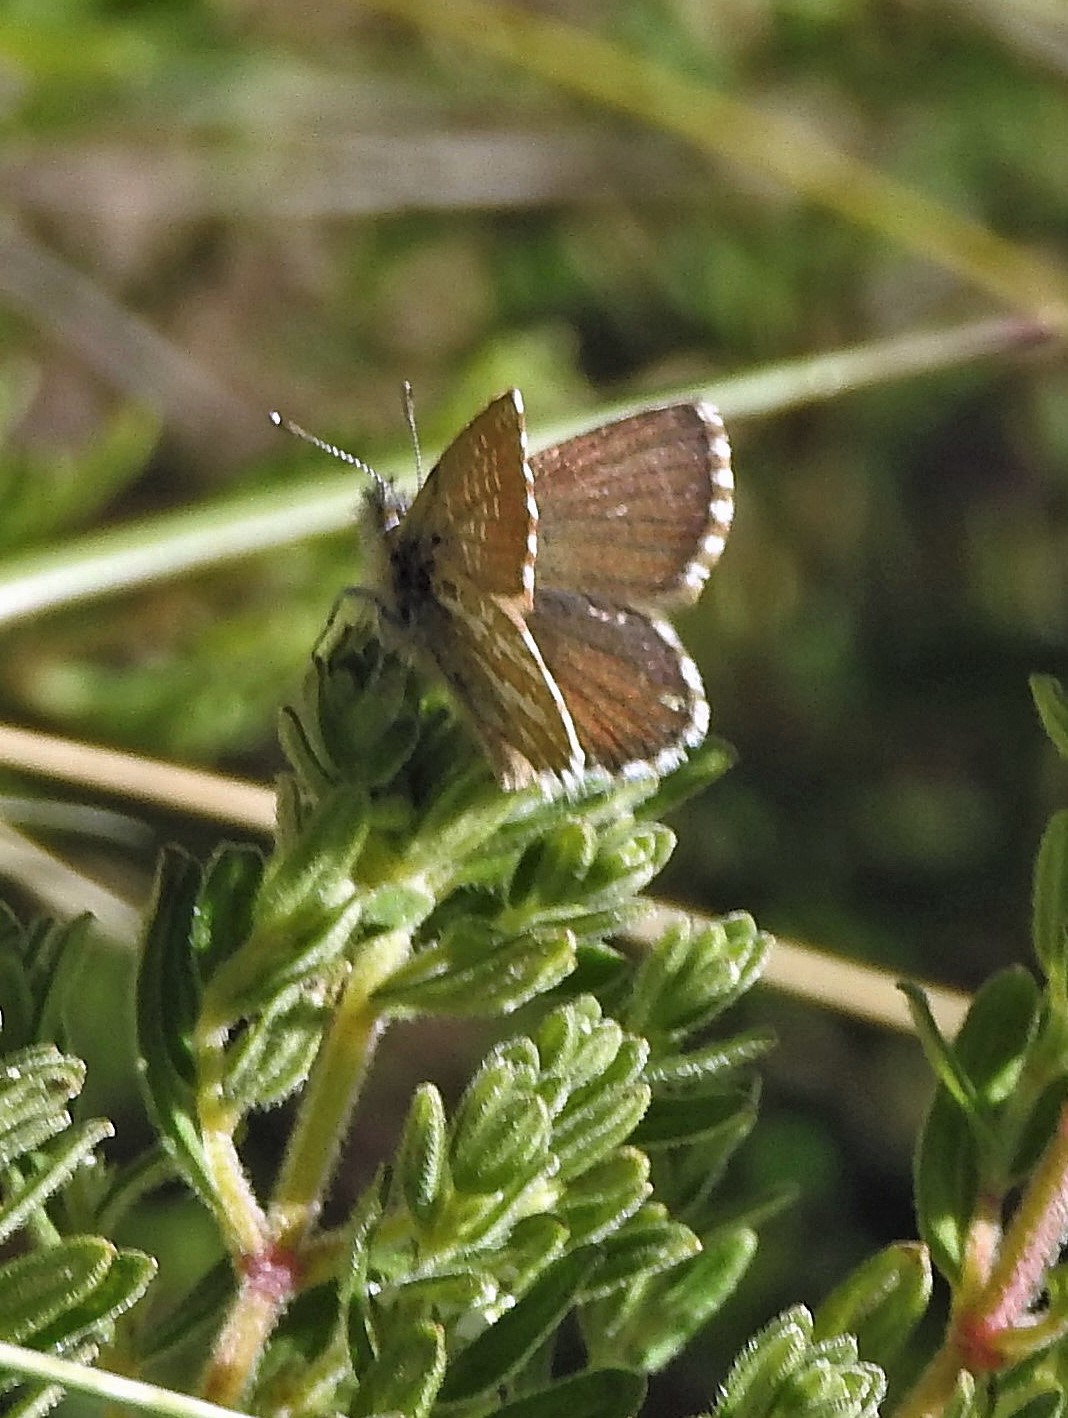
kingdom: Animalia
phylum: Arthropoda
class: Insecta
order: Lepidoptera
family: Lycaenidae
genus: Itylos
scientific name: Itylos vapa
